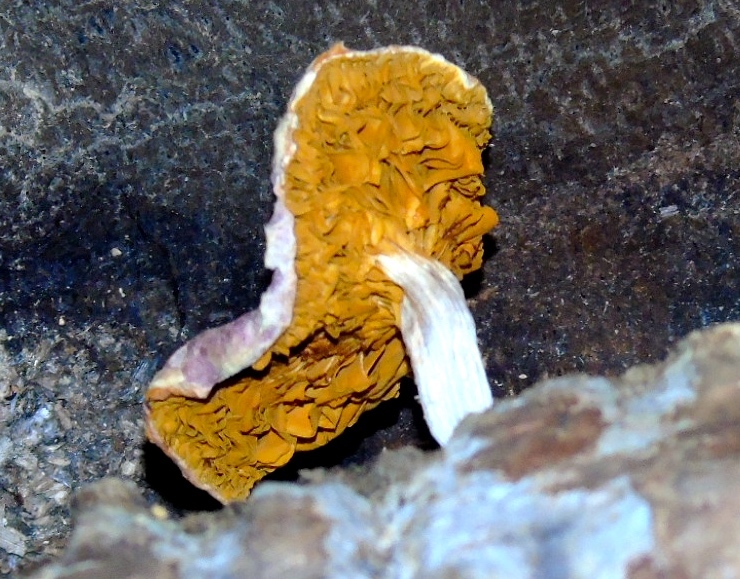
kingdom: Fungi
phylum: Basidiomycota
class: Agaricomycetes
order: Agaricales
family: Hymenogastraceae
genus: Gymnopilus
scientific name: Gymnopilus subpurpuratus
